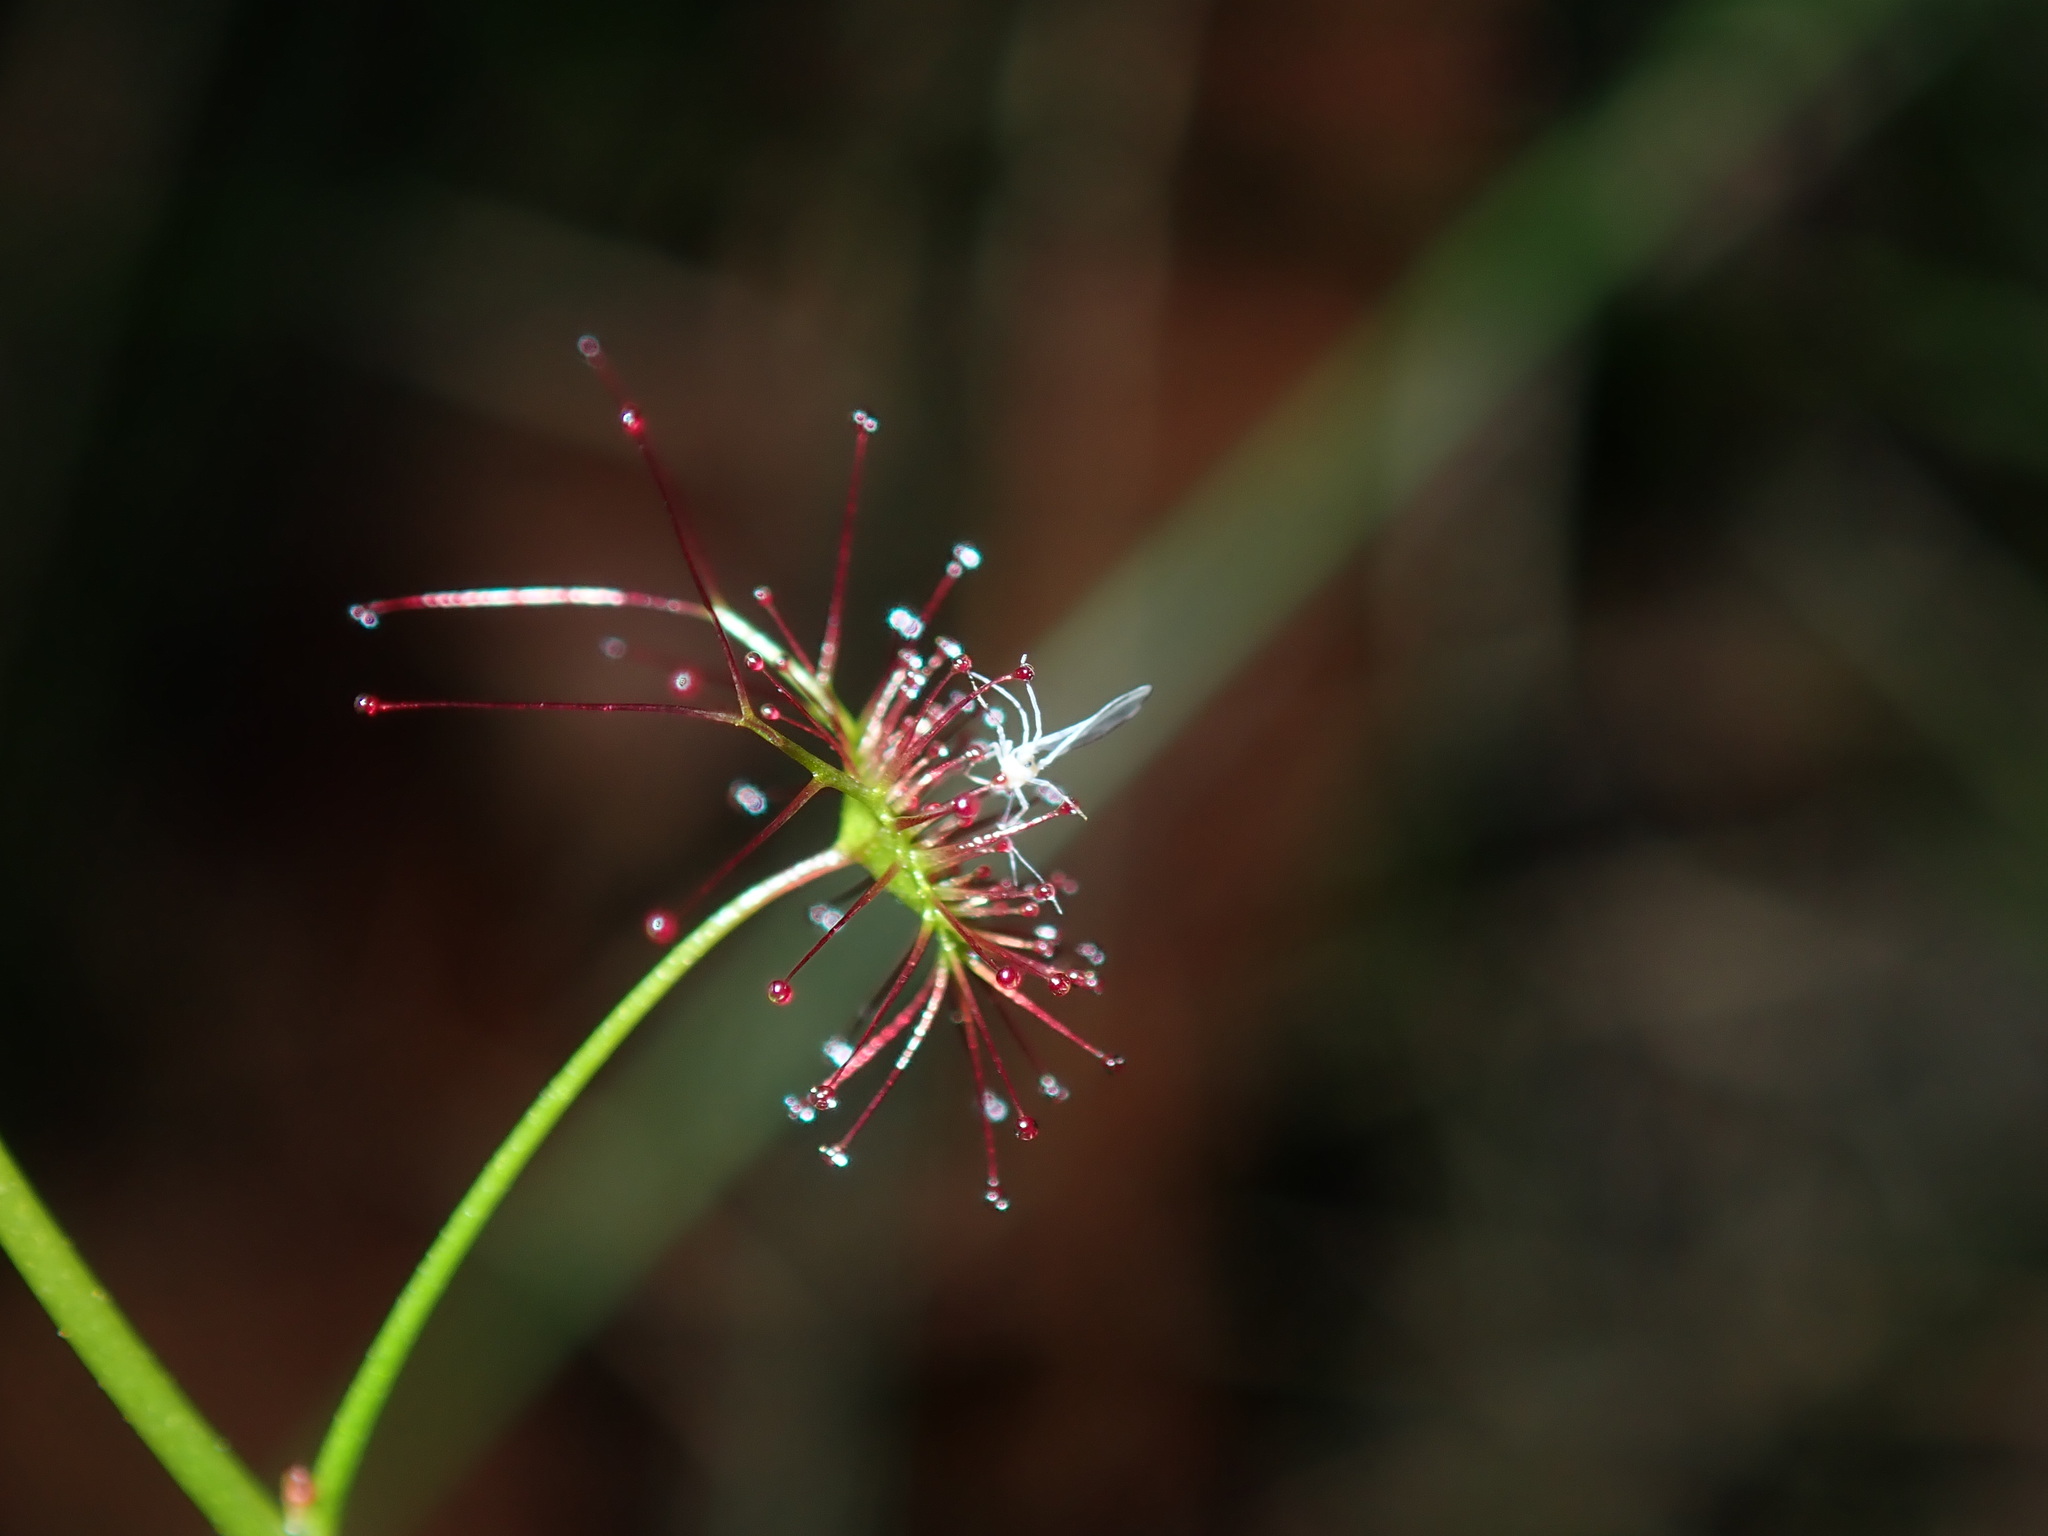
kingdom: Plantae
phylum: Tracheophyta
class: Magnoliopsida
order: Caryophyllales
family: Droseraceae
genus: Drosera
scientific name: Drosera peltata
